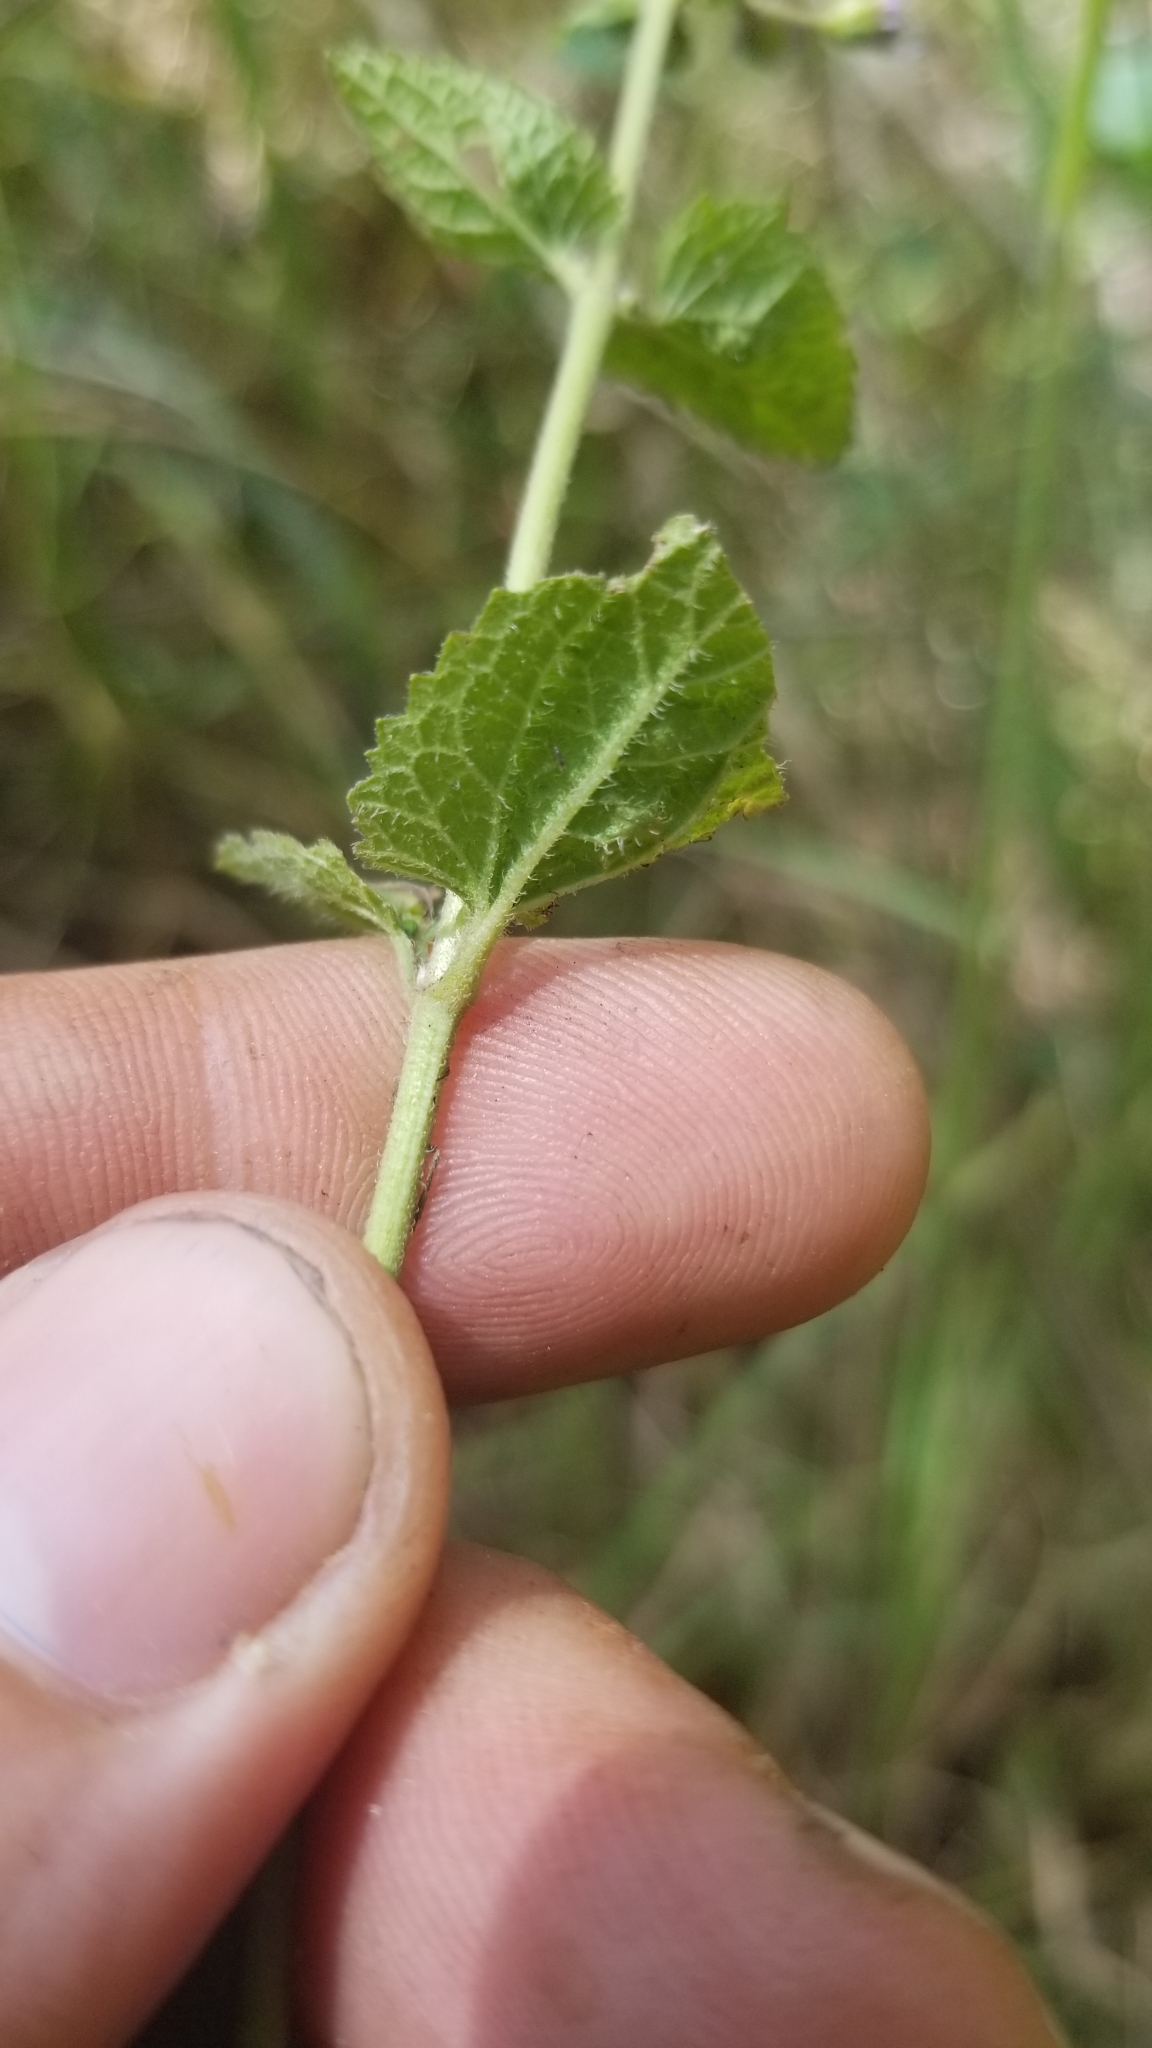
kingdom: Plantae
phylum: Tracheophyta
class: Magnoliopsida
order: Asterales
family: Asteraceae
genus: Conoclinium
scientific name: Conoclinium coelestinum
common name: Blue mistflower
